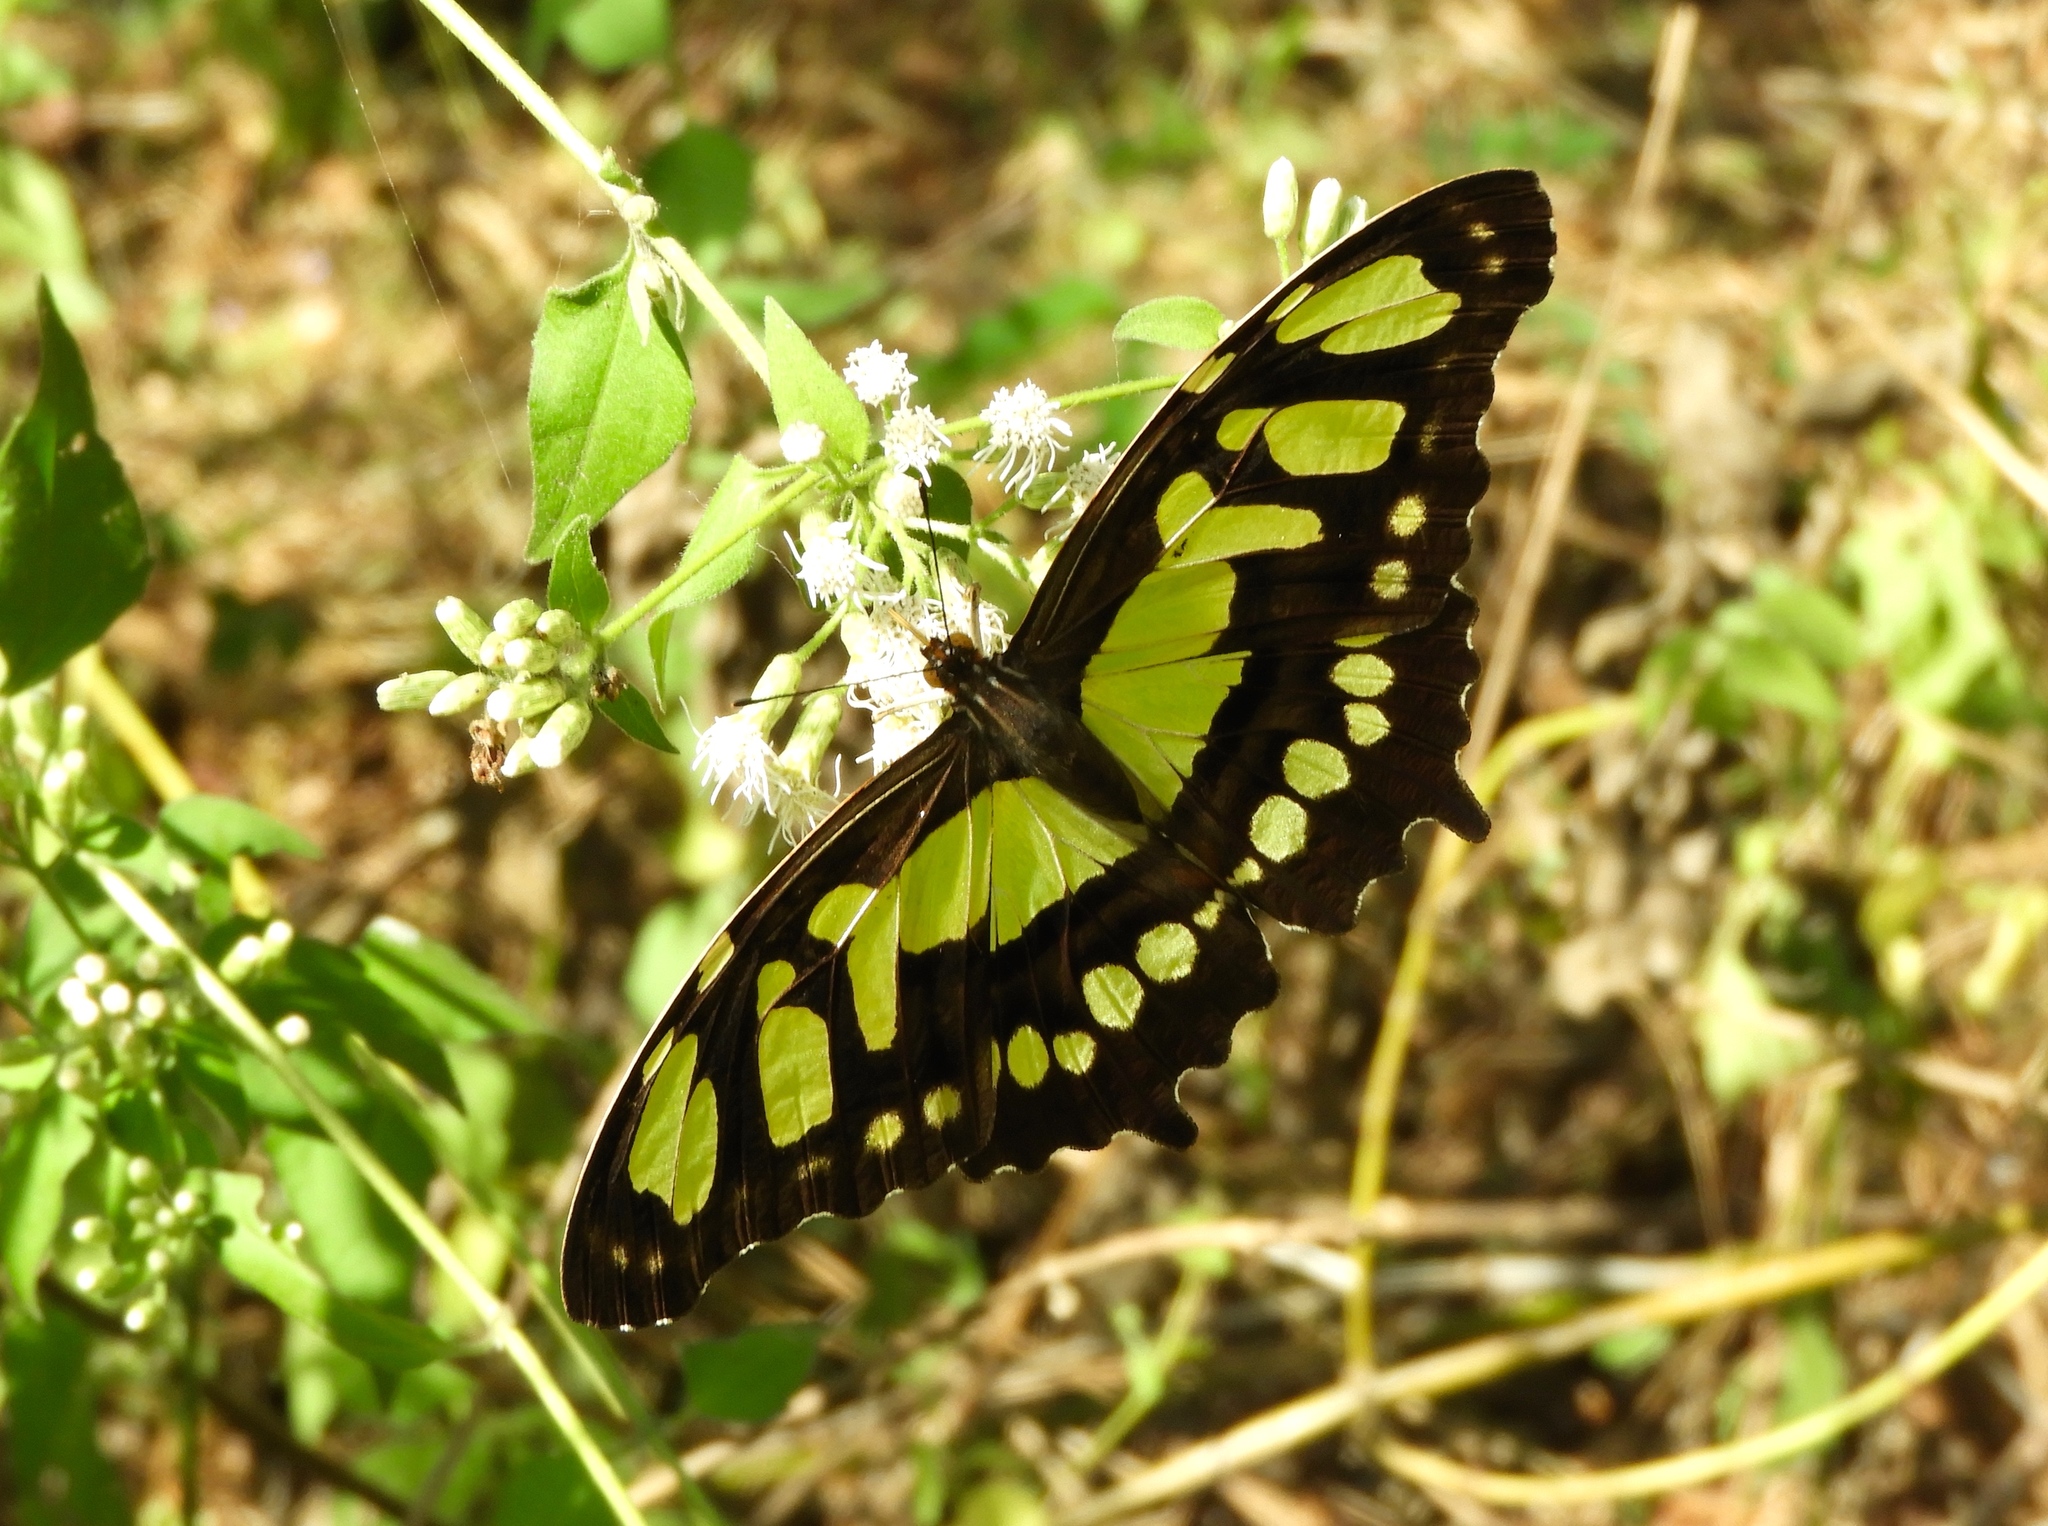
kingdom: Animalia
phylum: Arthropoda
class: Insecta
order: Lepidoptera
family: Nymphalidae
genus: Siproeta
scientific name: Siproeta stelenes
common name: Malachite
